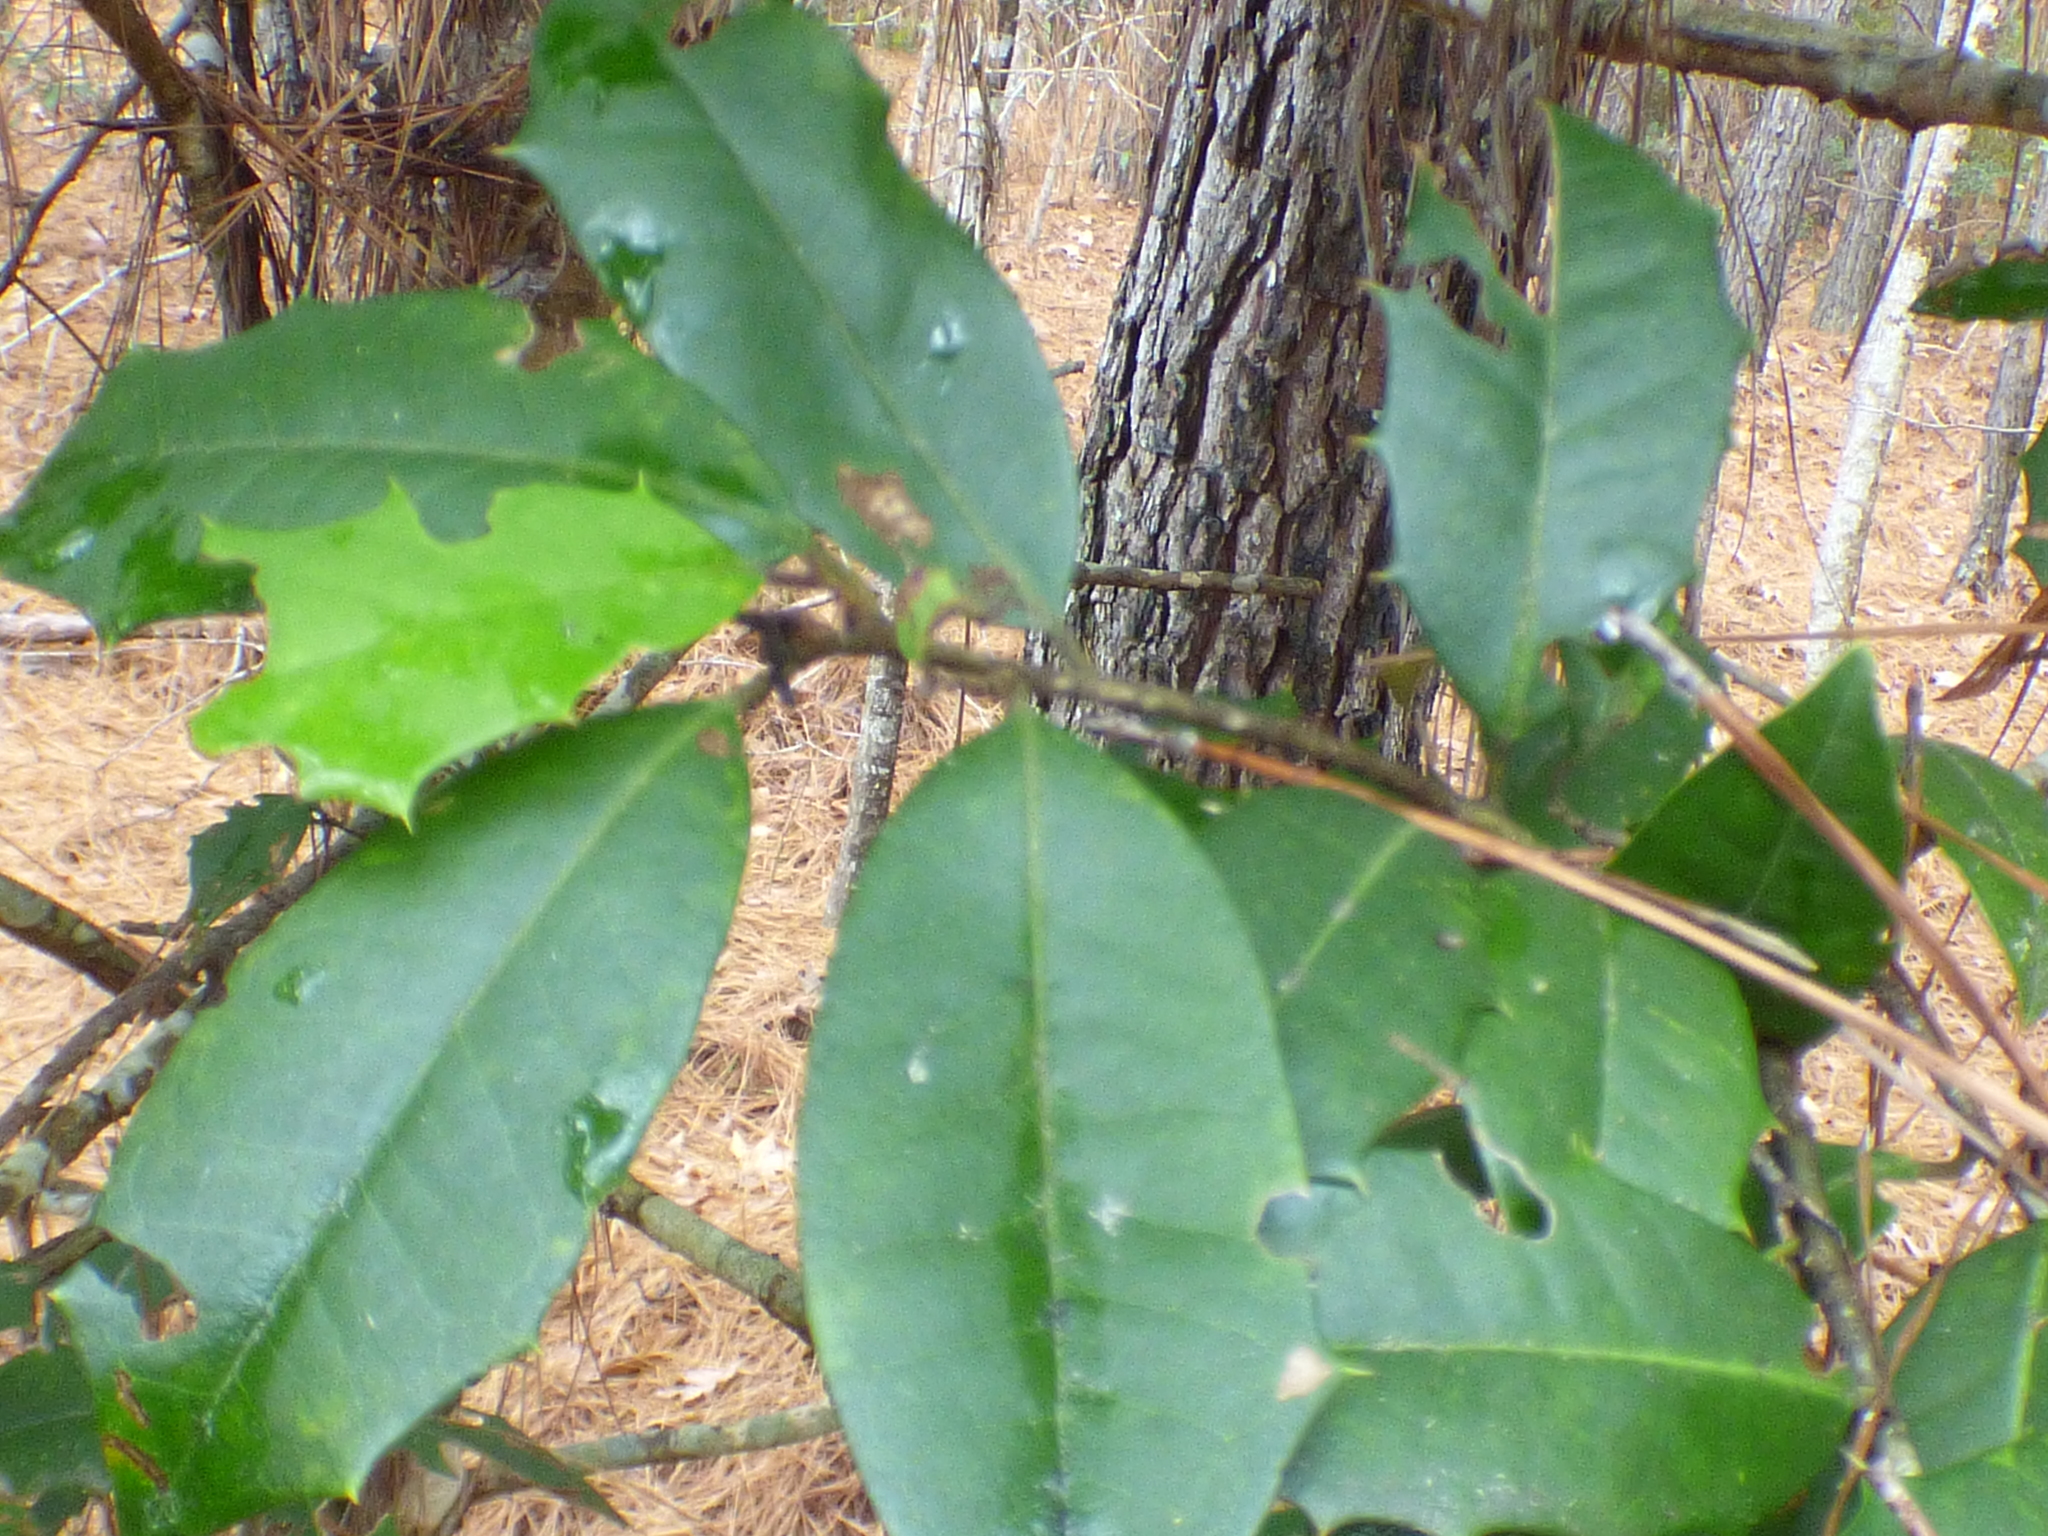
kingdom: Plantae
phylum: Tracheophyta
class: Magnoliopsida
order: Aquifoliales
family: Aquifoliaceae
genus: Ilex
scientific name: Ilex opaca
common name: American holly
